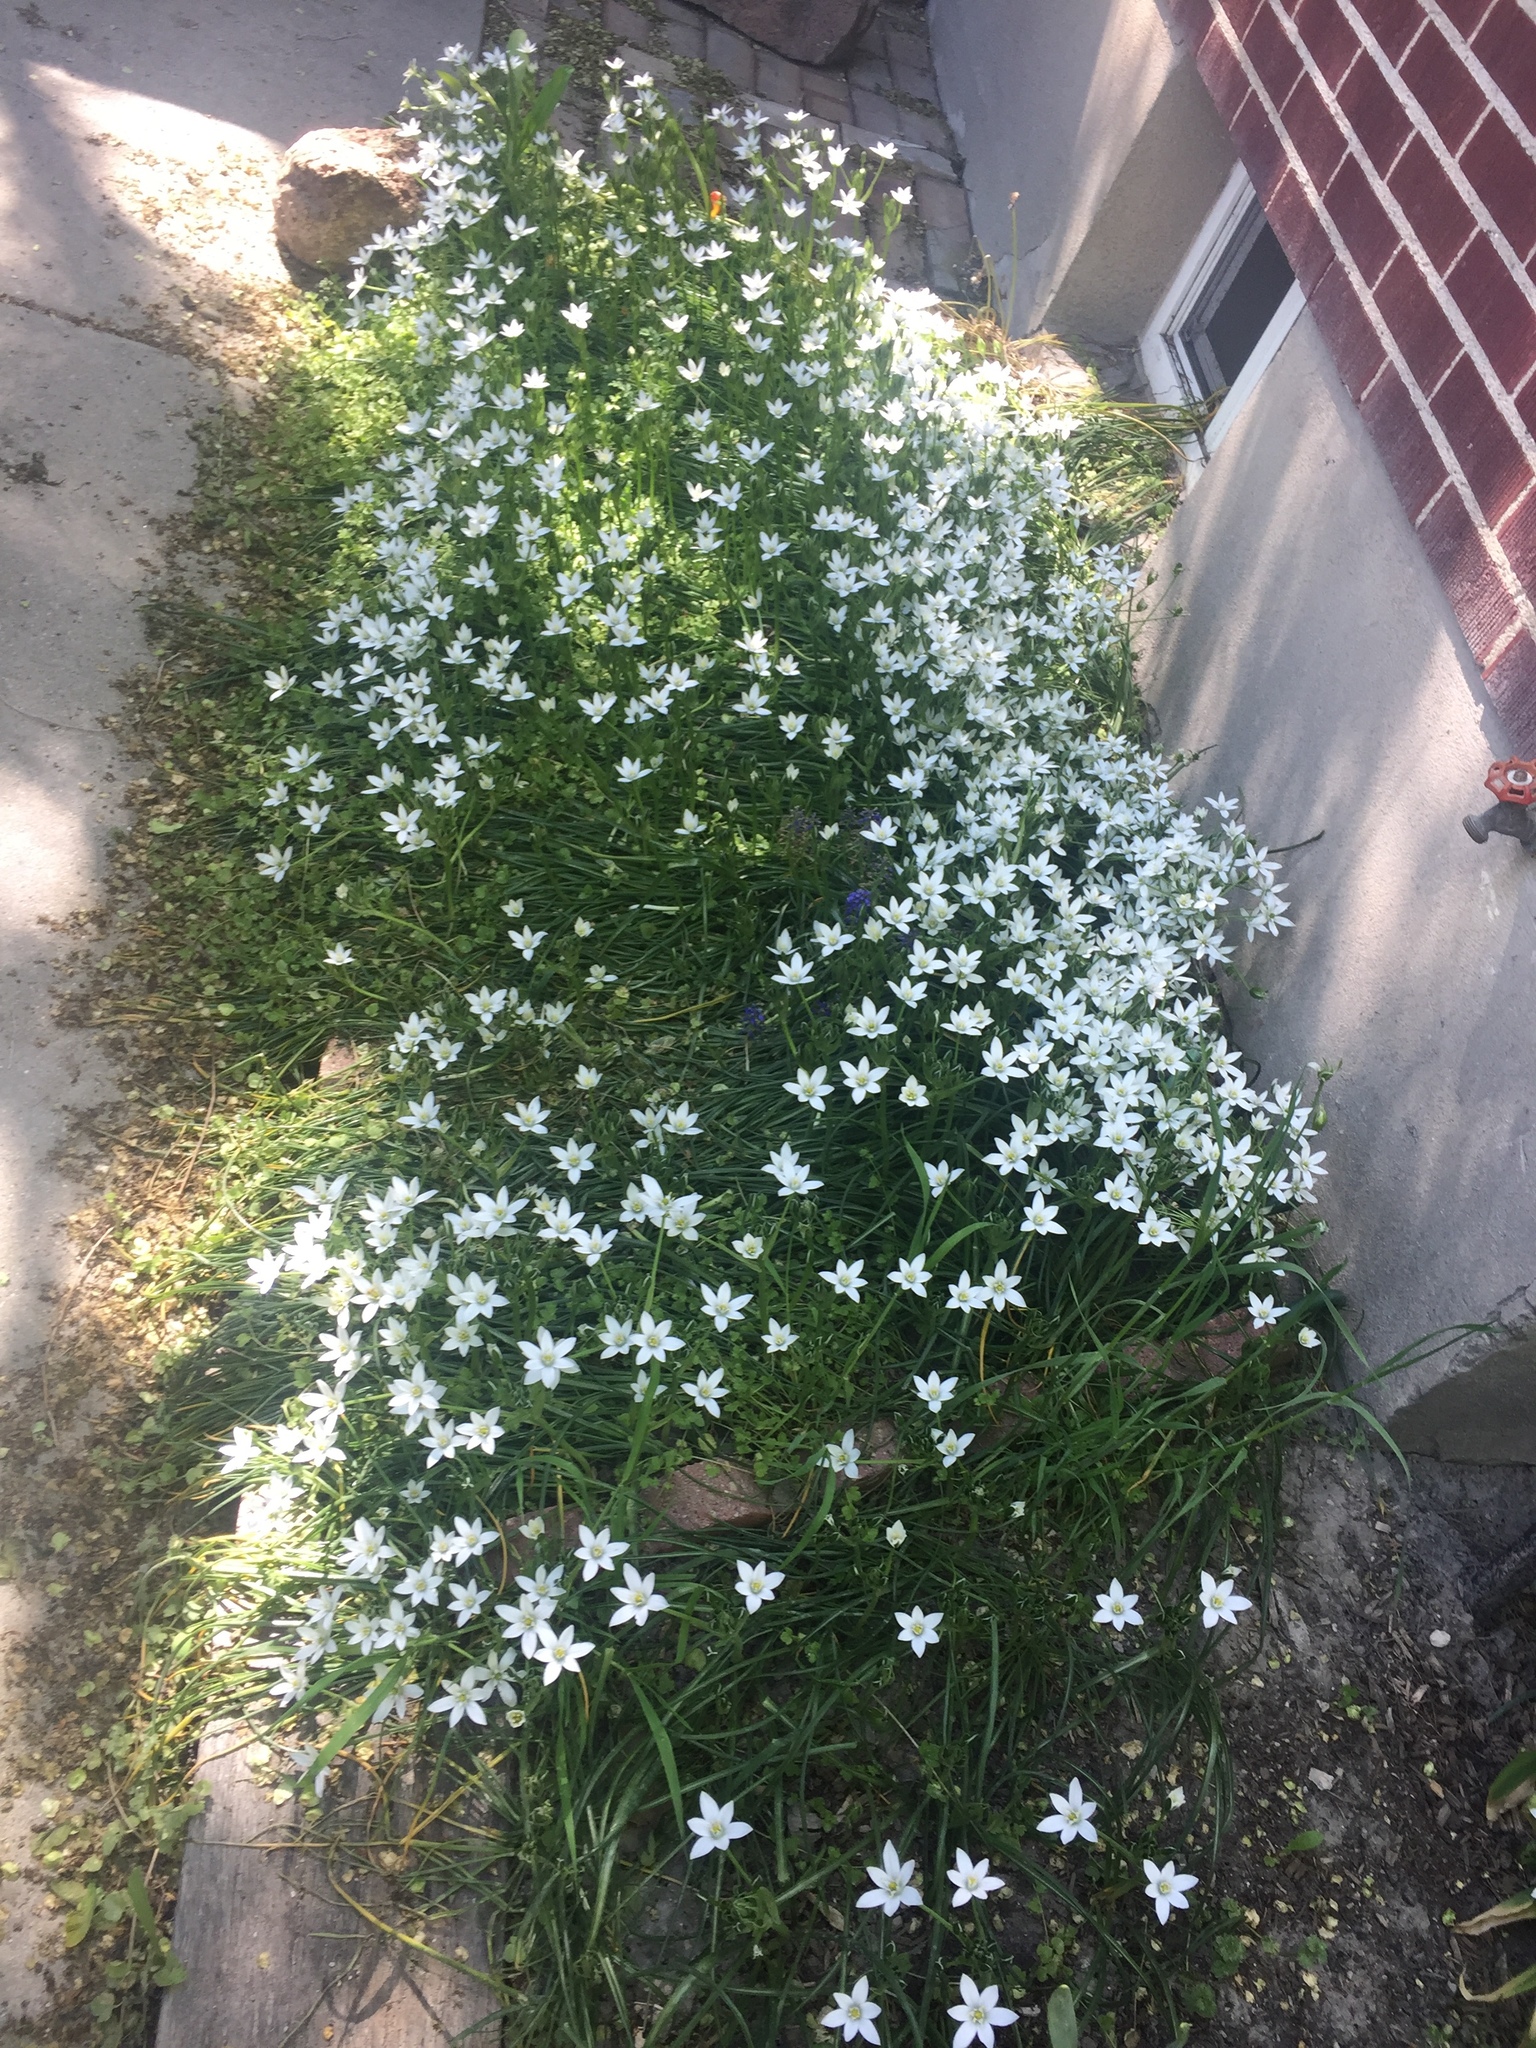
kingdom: Plantae
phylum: Tracheophyta
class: Liliopsida
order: Asparagales
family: Asparagaceae
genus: Ornithogalum
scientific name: Ornithogalum umbellatum
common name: Garden star-of-bethlehem
